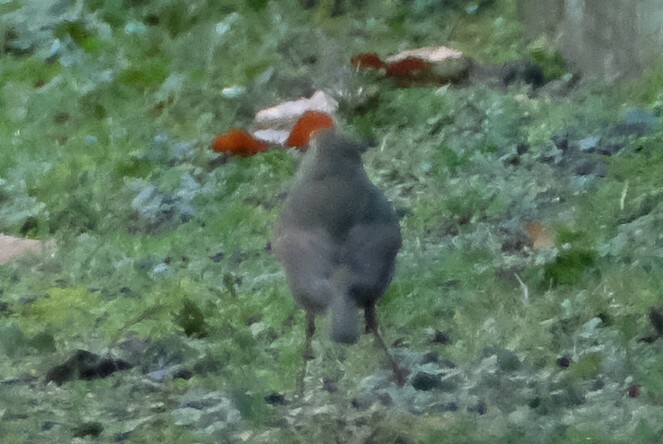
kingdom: Animalia
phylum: Chordata
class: Aves
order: Passeriformes
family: Muscicapidae
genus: Erithacus
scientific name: Erithacus rubecula
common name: European robin
